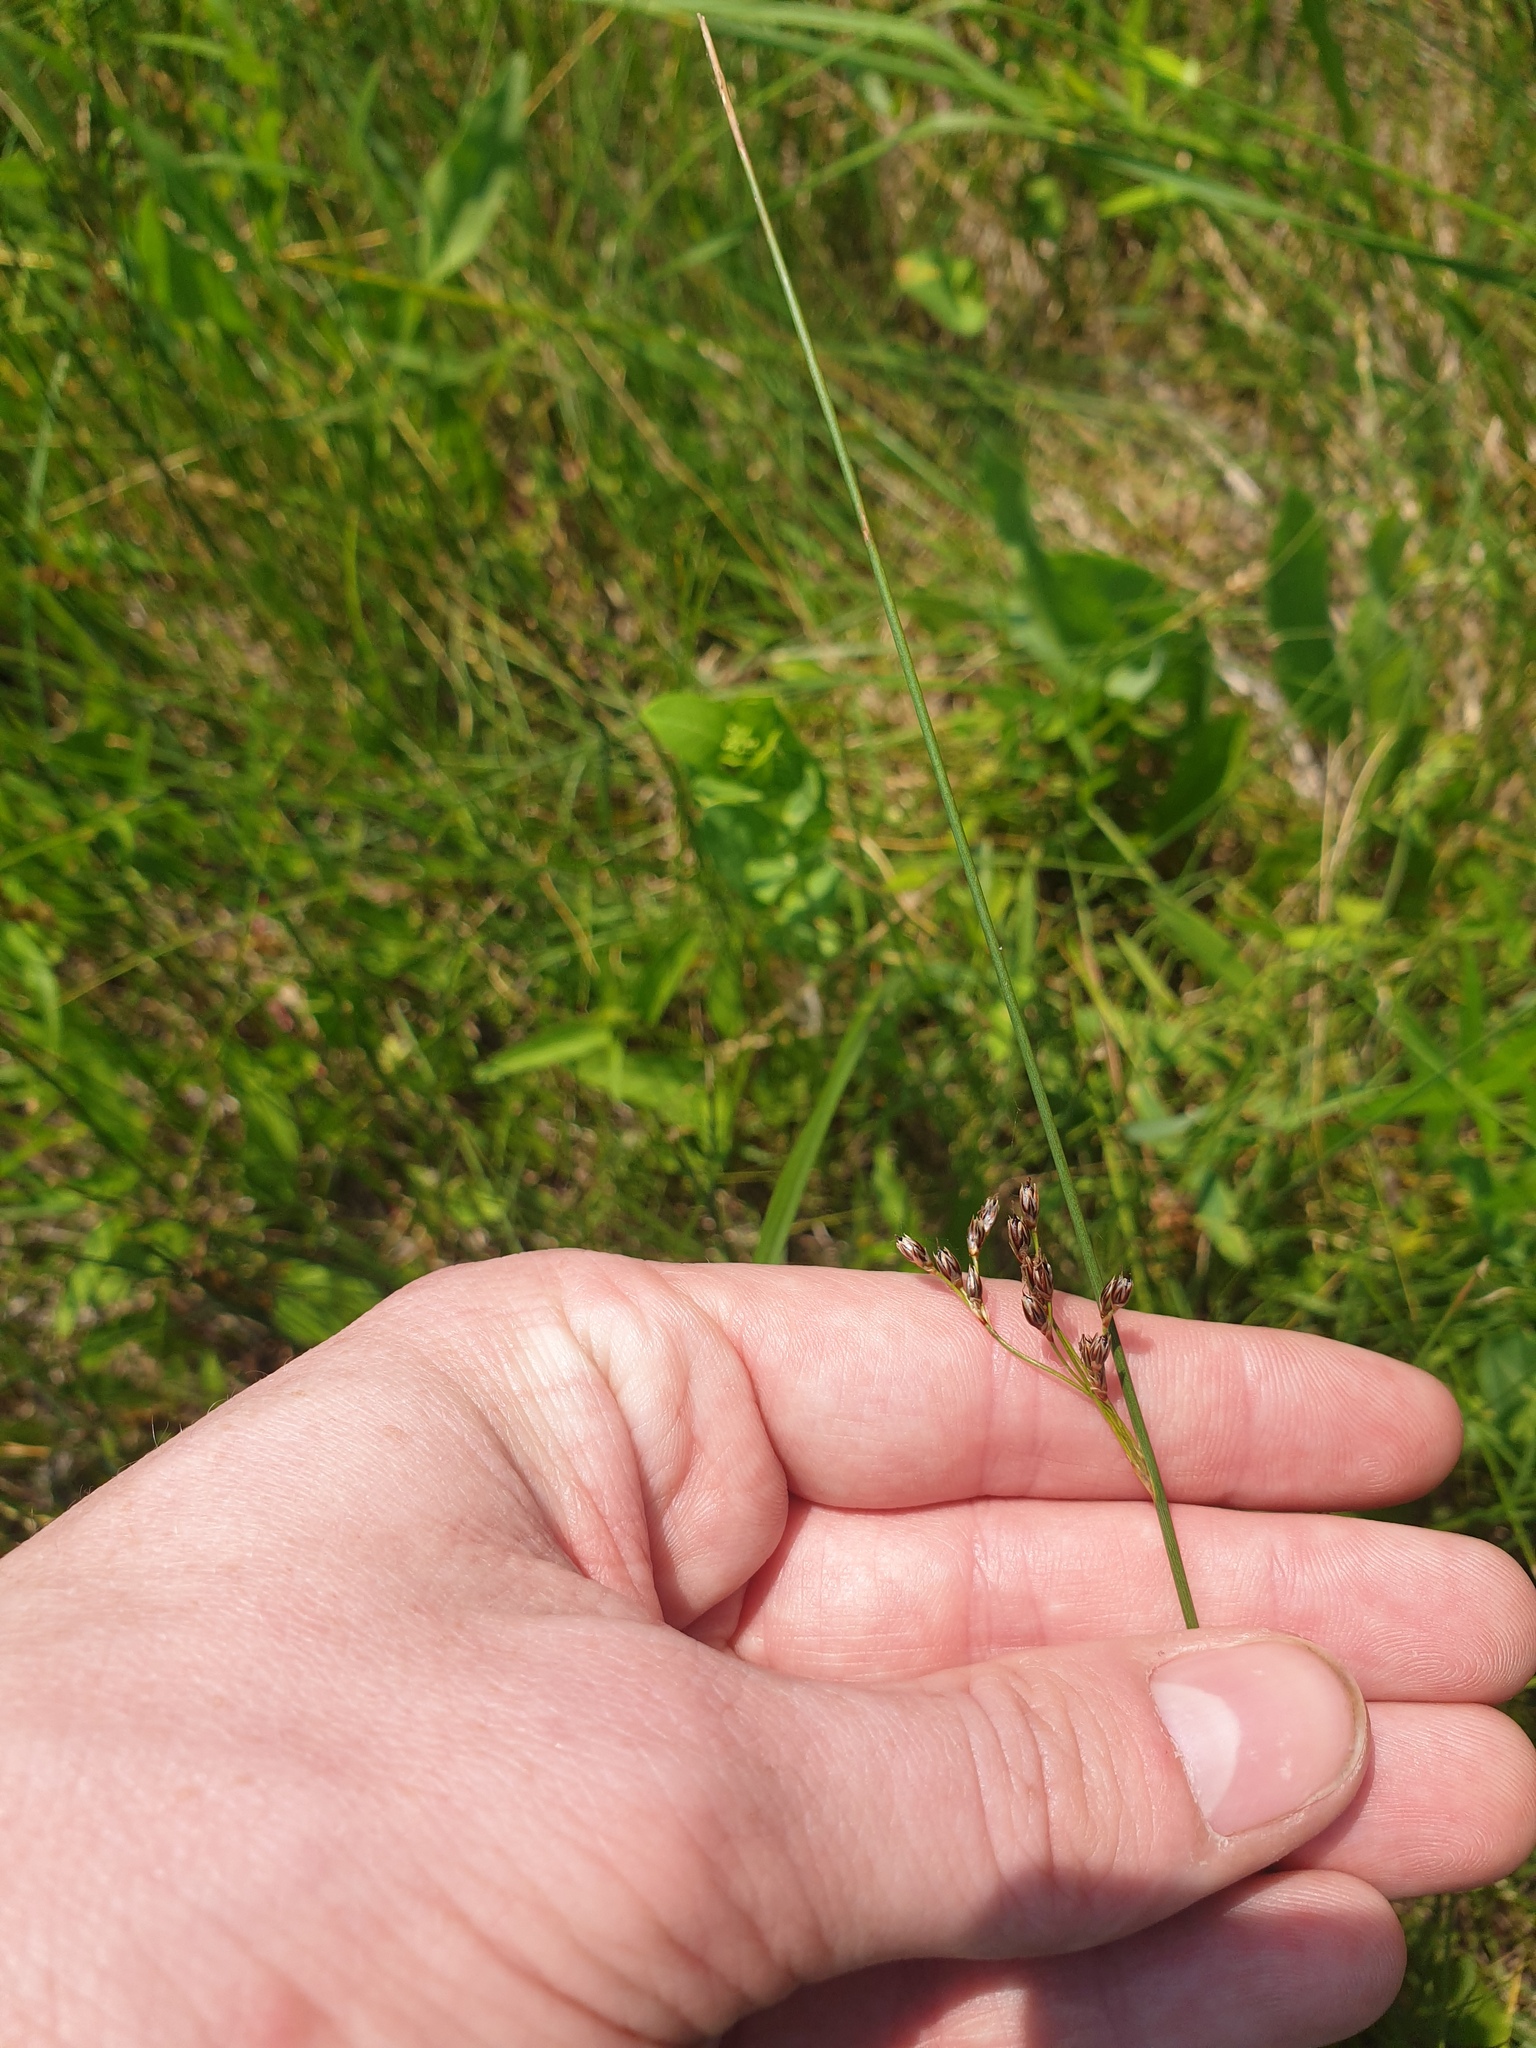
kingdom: Plantae
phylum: Tracheophyta
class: Liliopsida
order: Poales
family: Juncaceae
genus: Juncus
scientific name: Juncus balticus
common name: Baltic rush
